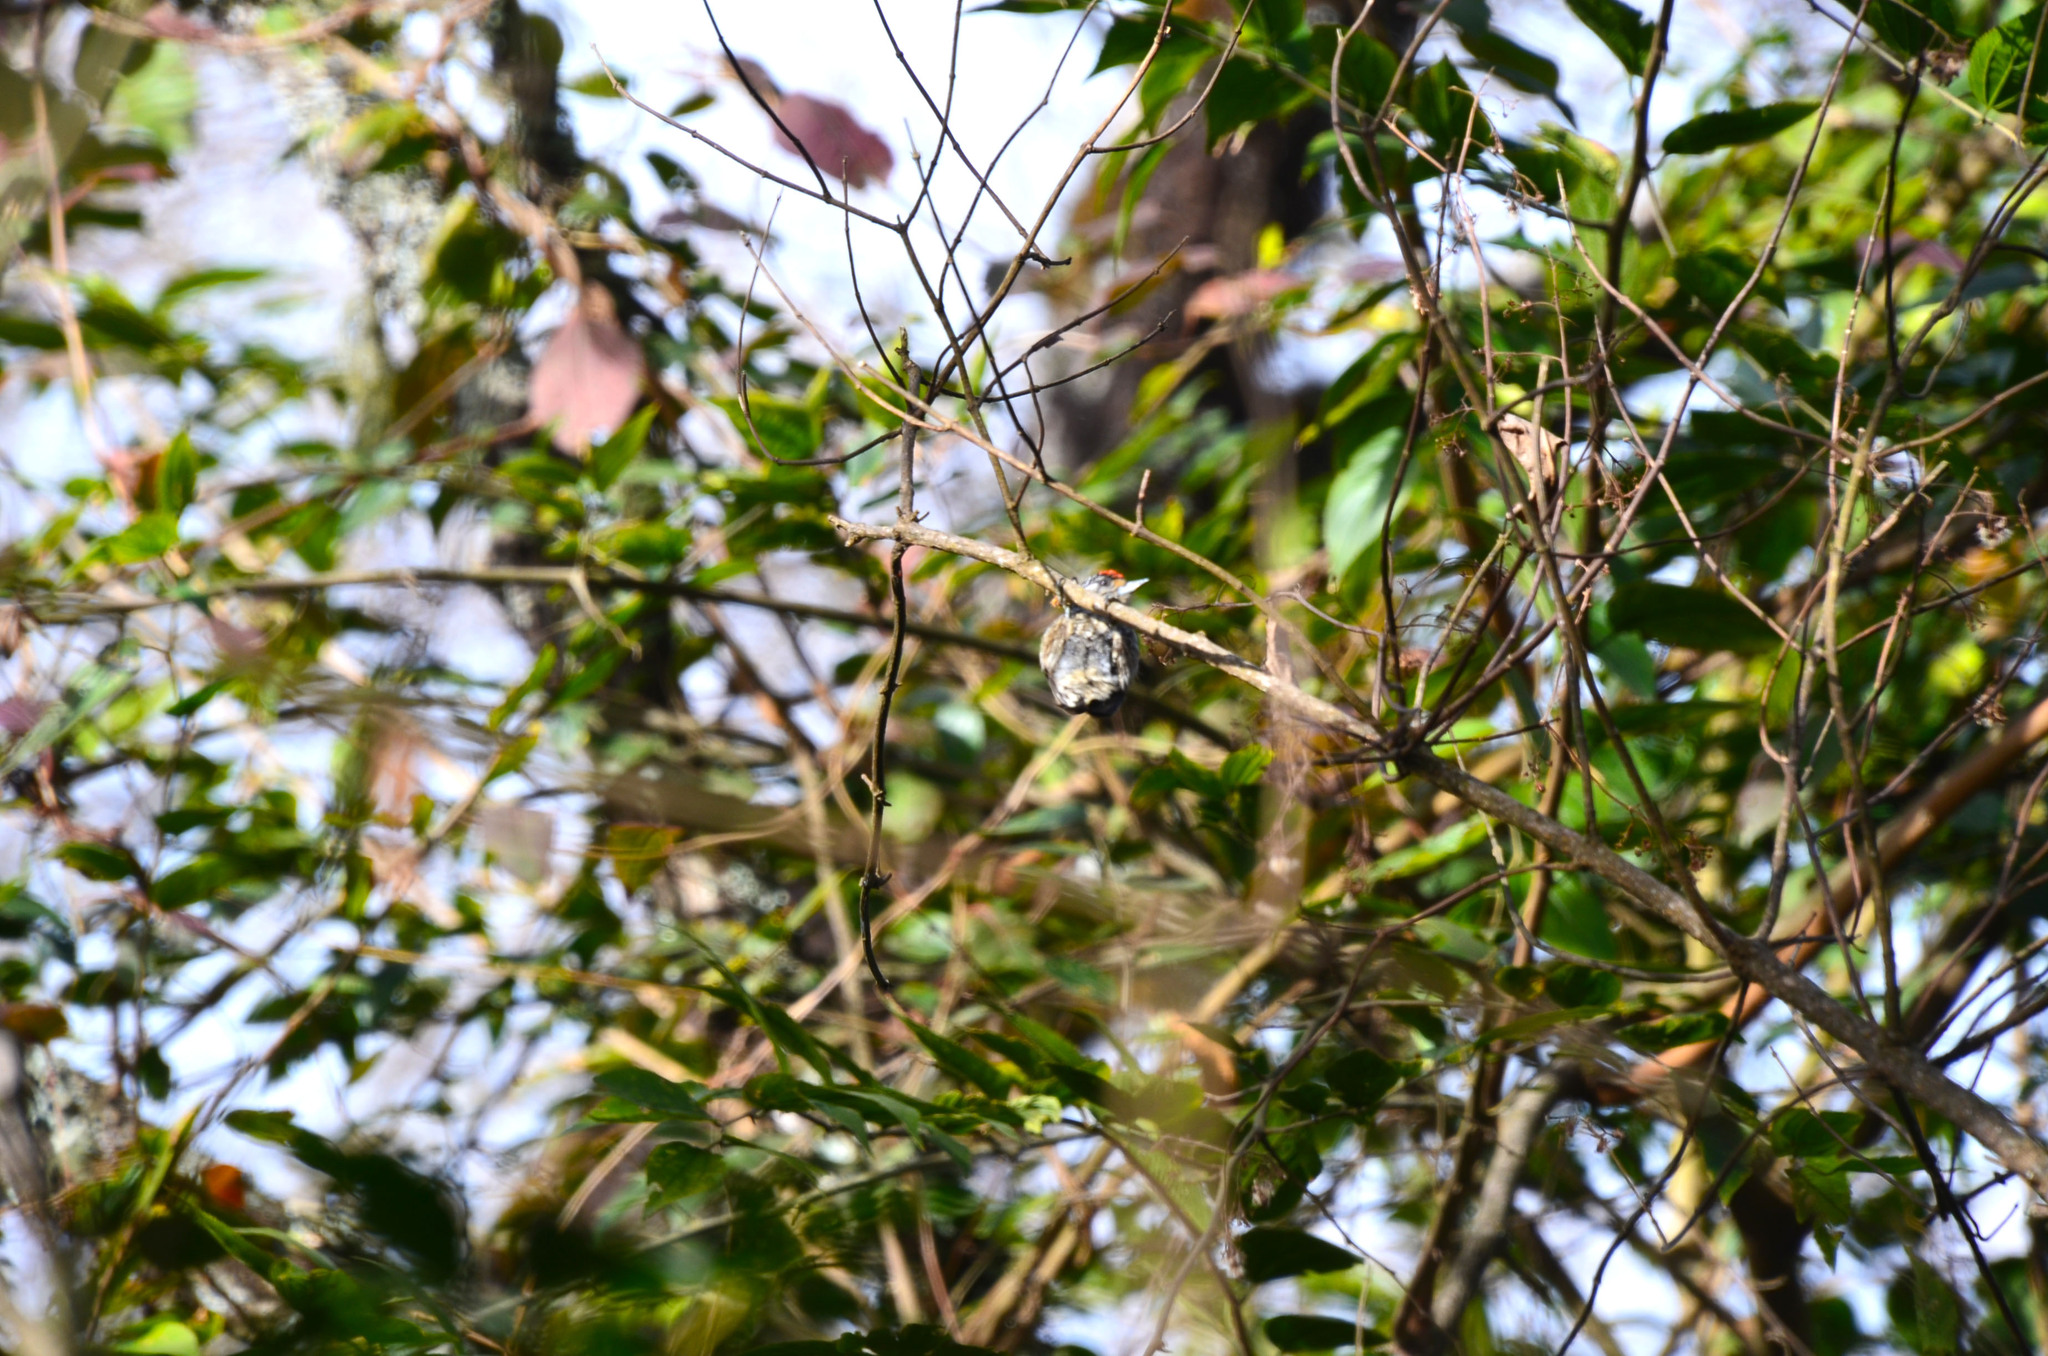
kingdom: Animalia
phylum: Chordata
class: Aves
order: Piciformes
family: Picidae
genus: Picumnus
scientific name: Picumnus cirratus
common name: White-barred piculet
